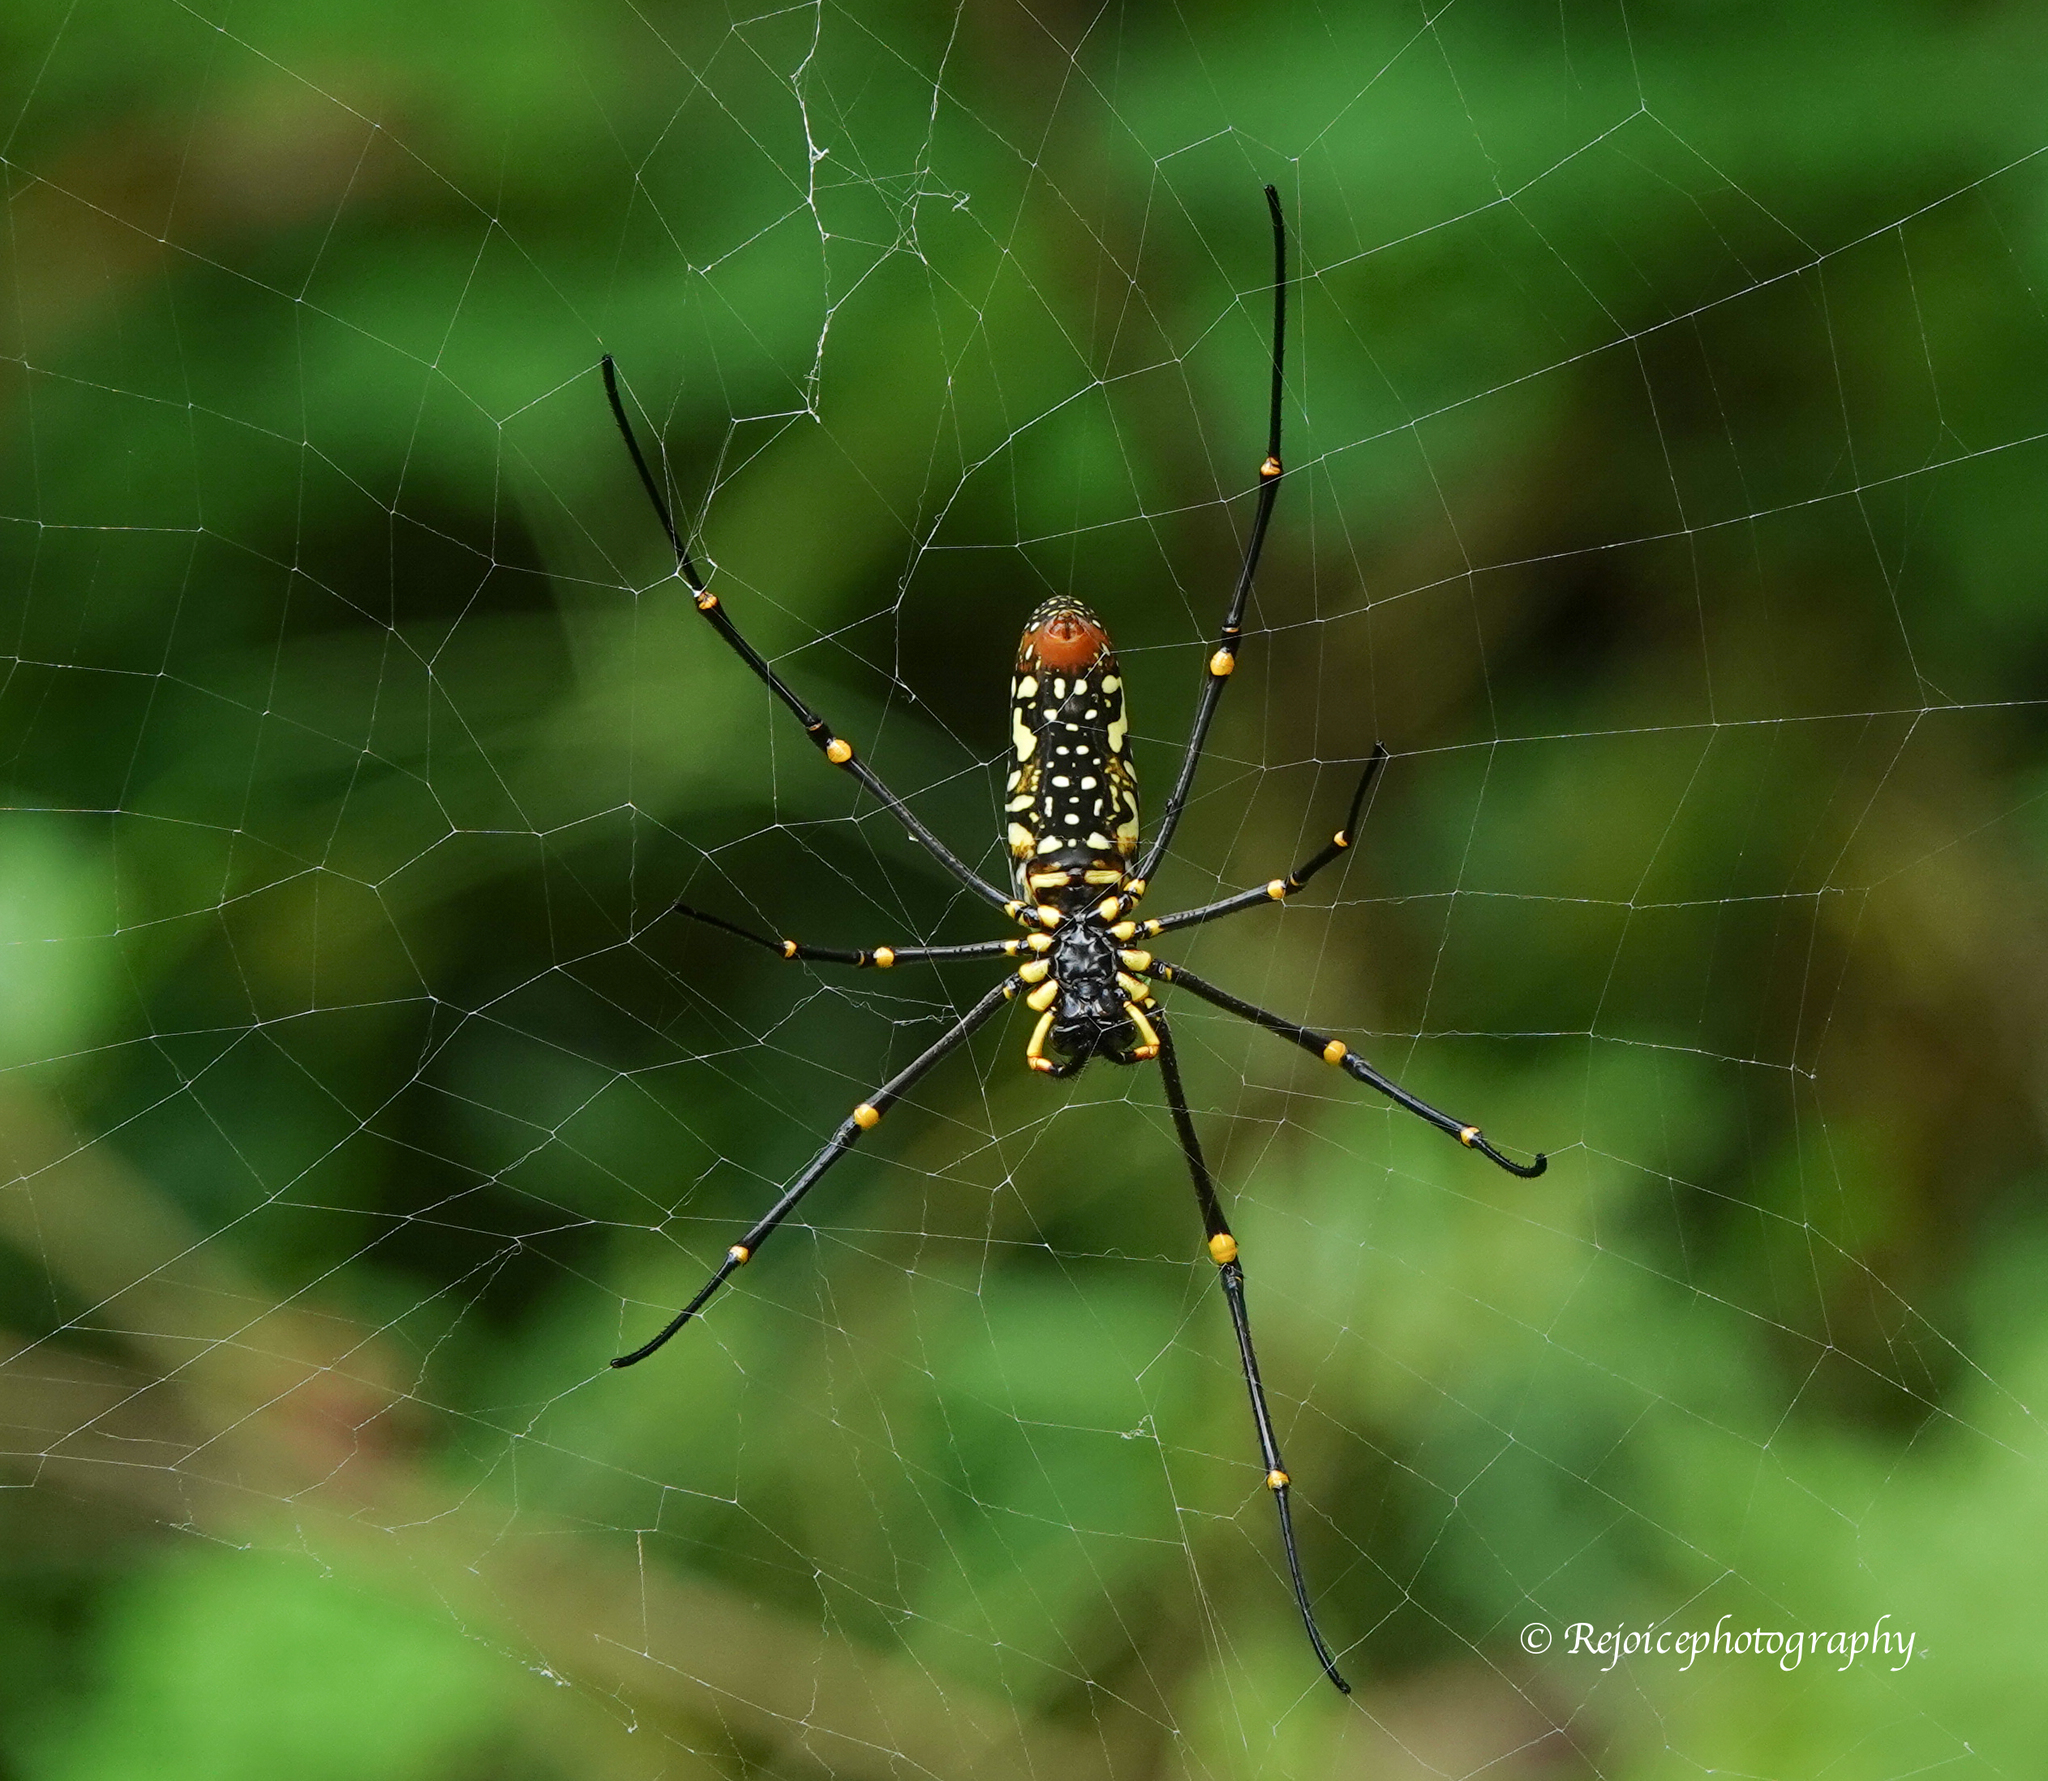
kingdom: Animalia
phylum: Arthropoda
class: Arachnida
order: Araneae
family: Araneidae
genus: Nephila
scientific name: Nephila pilipes
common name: Giant golden orb weaver
